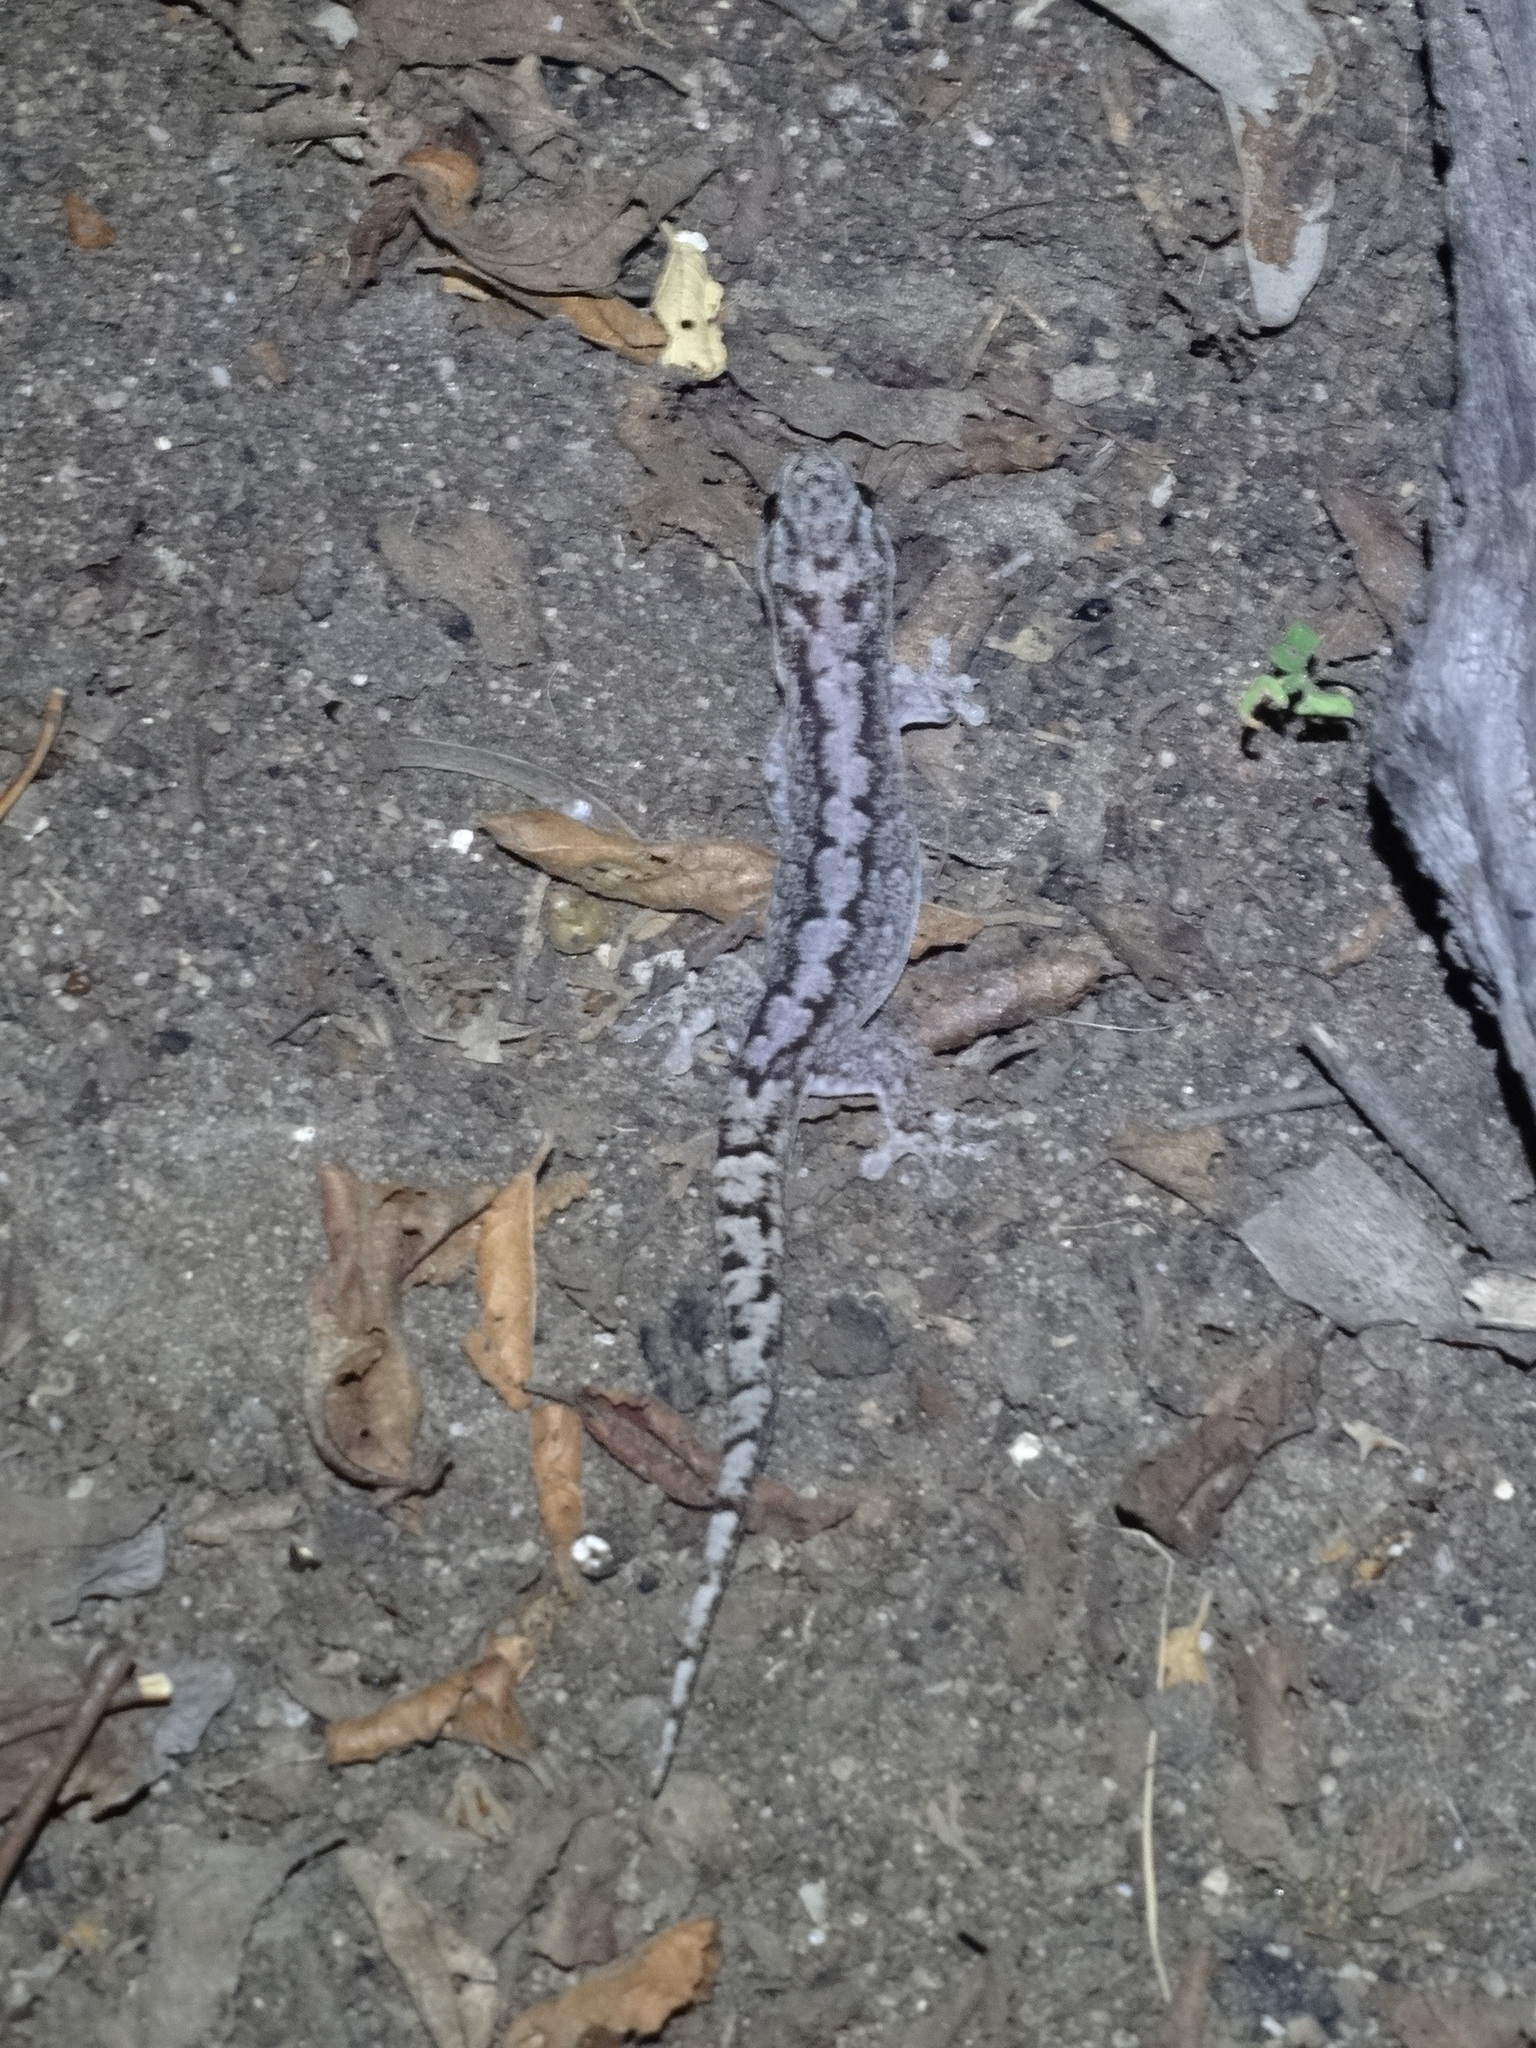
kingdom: Animalia
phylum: Chordata
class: Squamata
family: Gekkonidae
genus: Gehyra
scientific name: Gehyra catenata
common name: Chain-backed dtella
